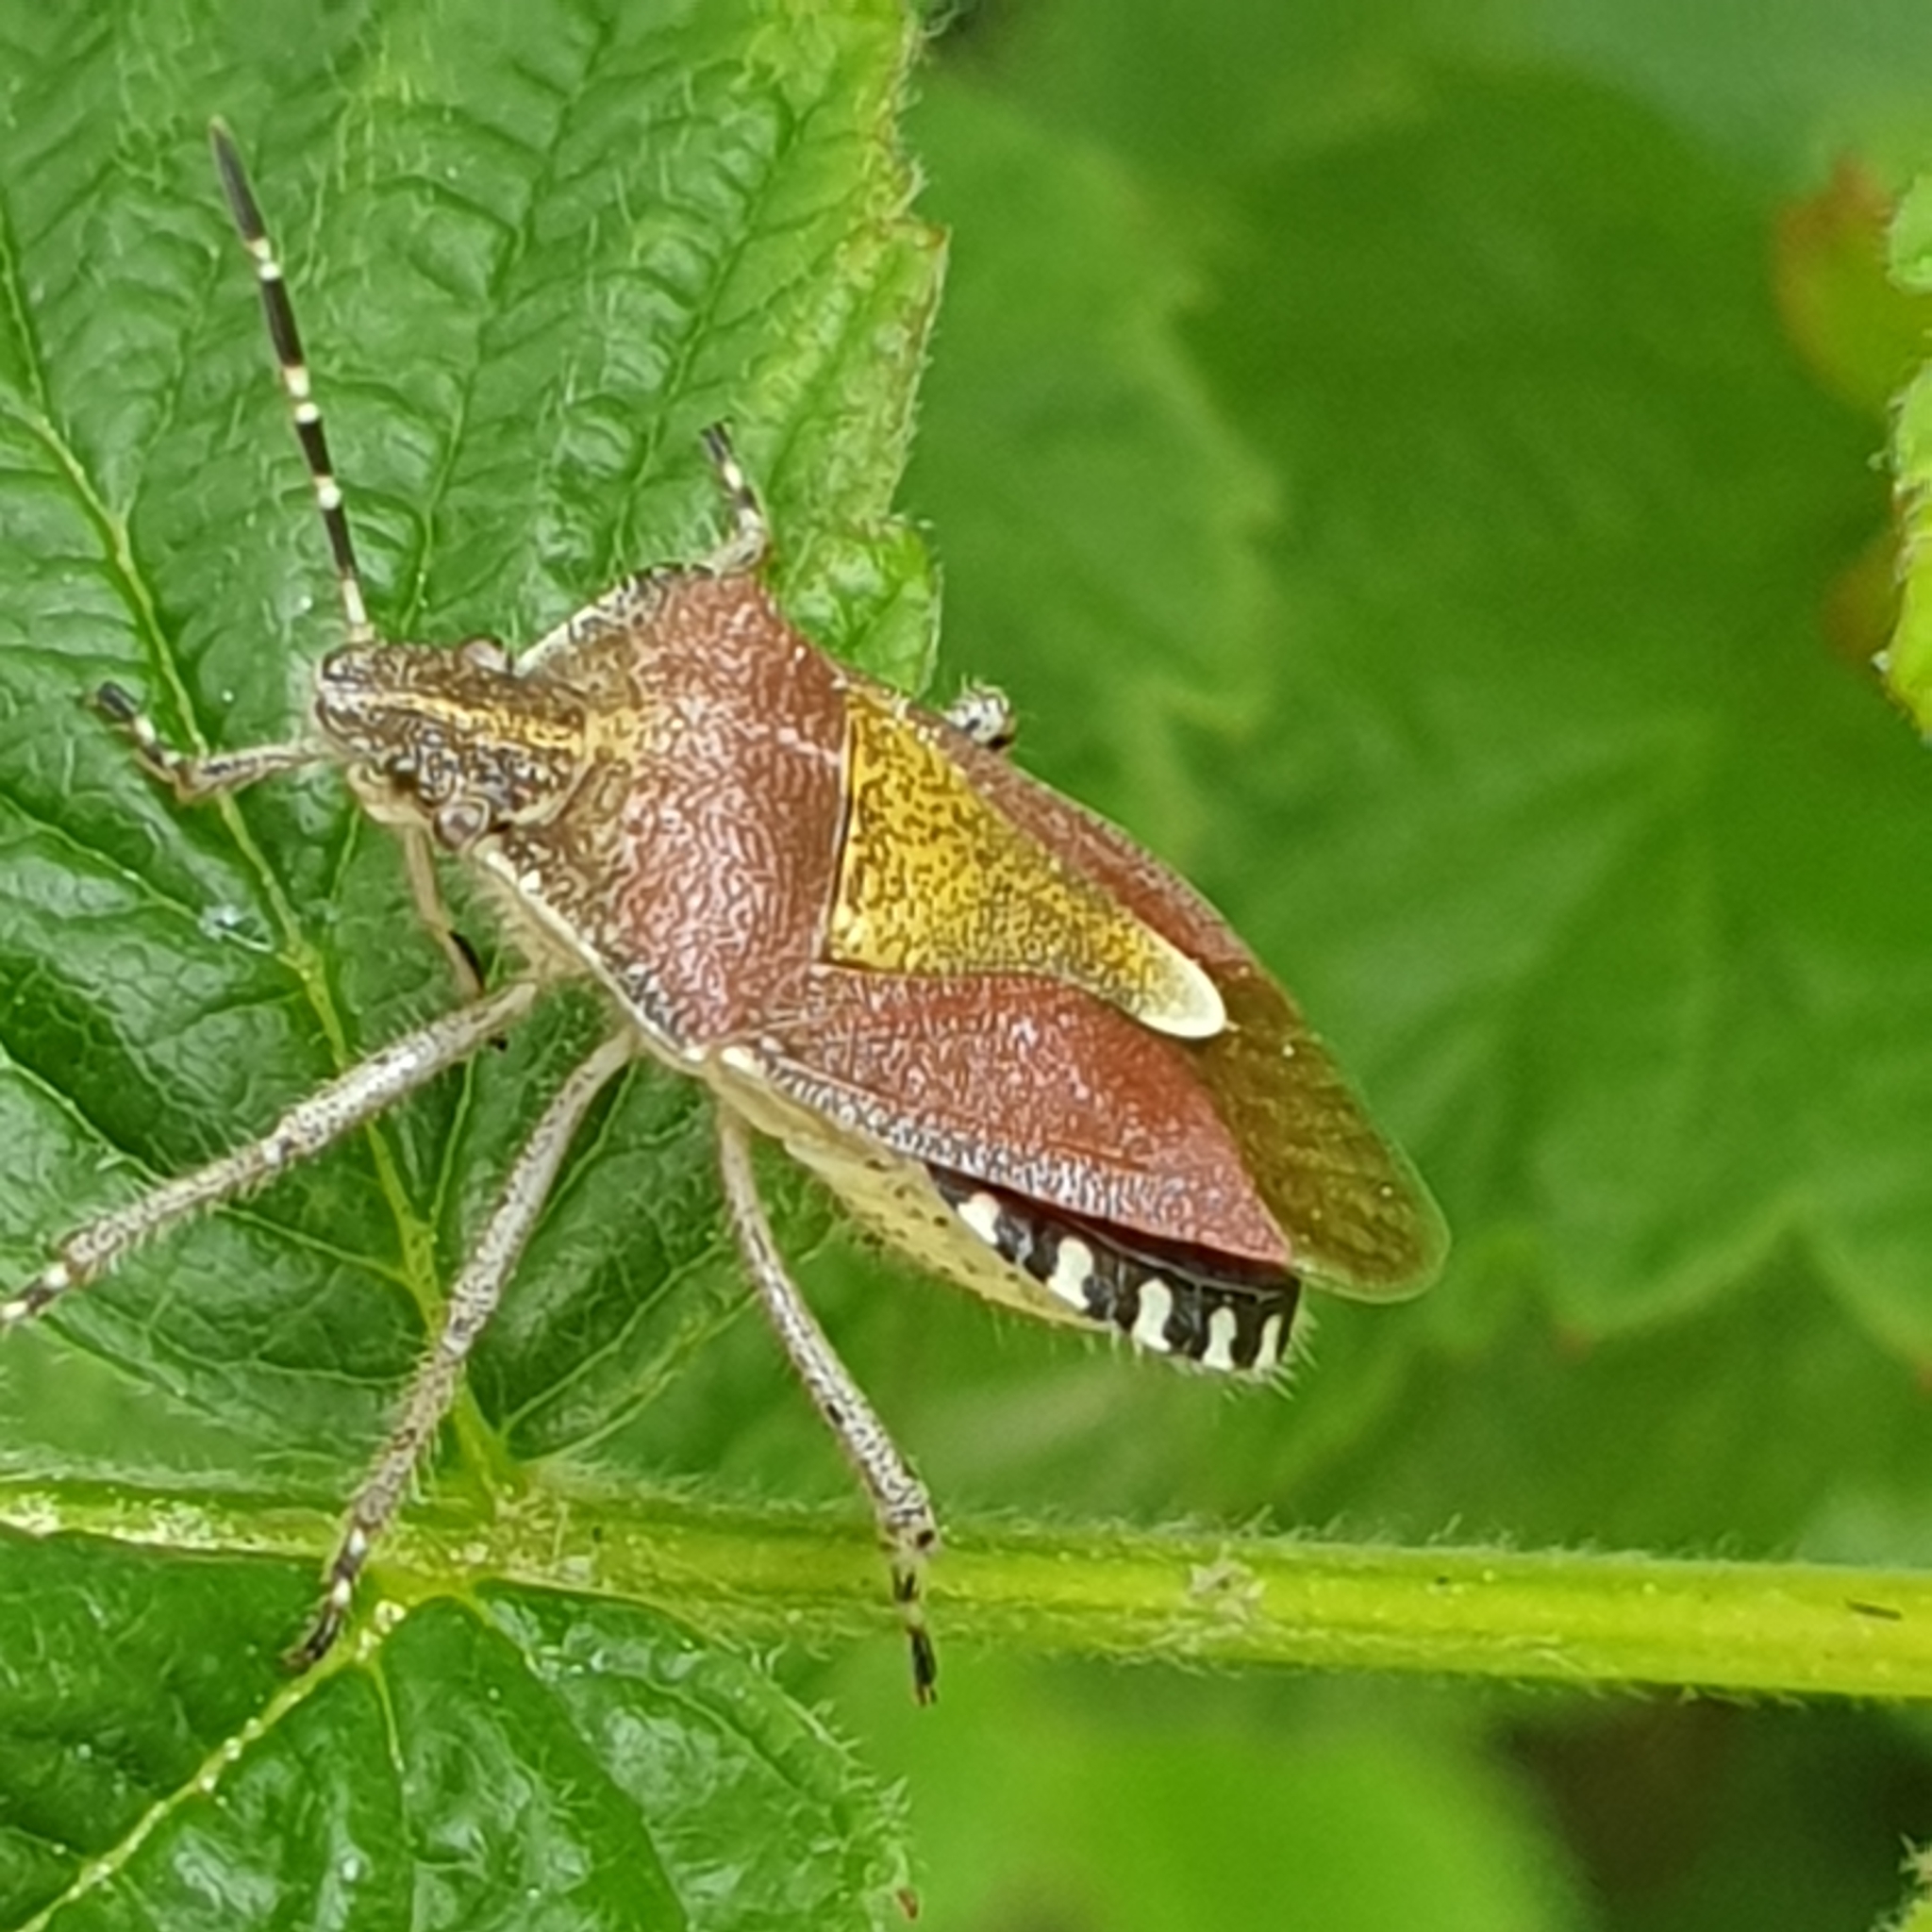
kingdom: Animalia
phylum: Arthropoda
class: Insecta
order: Hemiptera
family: Pentatomidae
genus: Dolycoris
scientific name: Dolycoris baccarum
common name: Sloe bug
